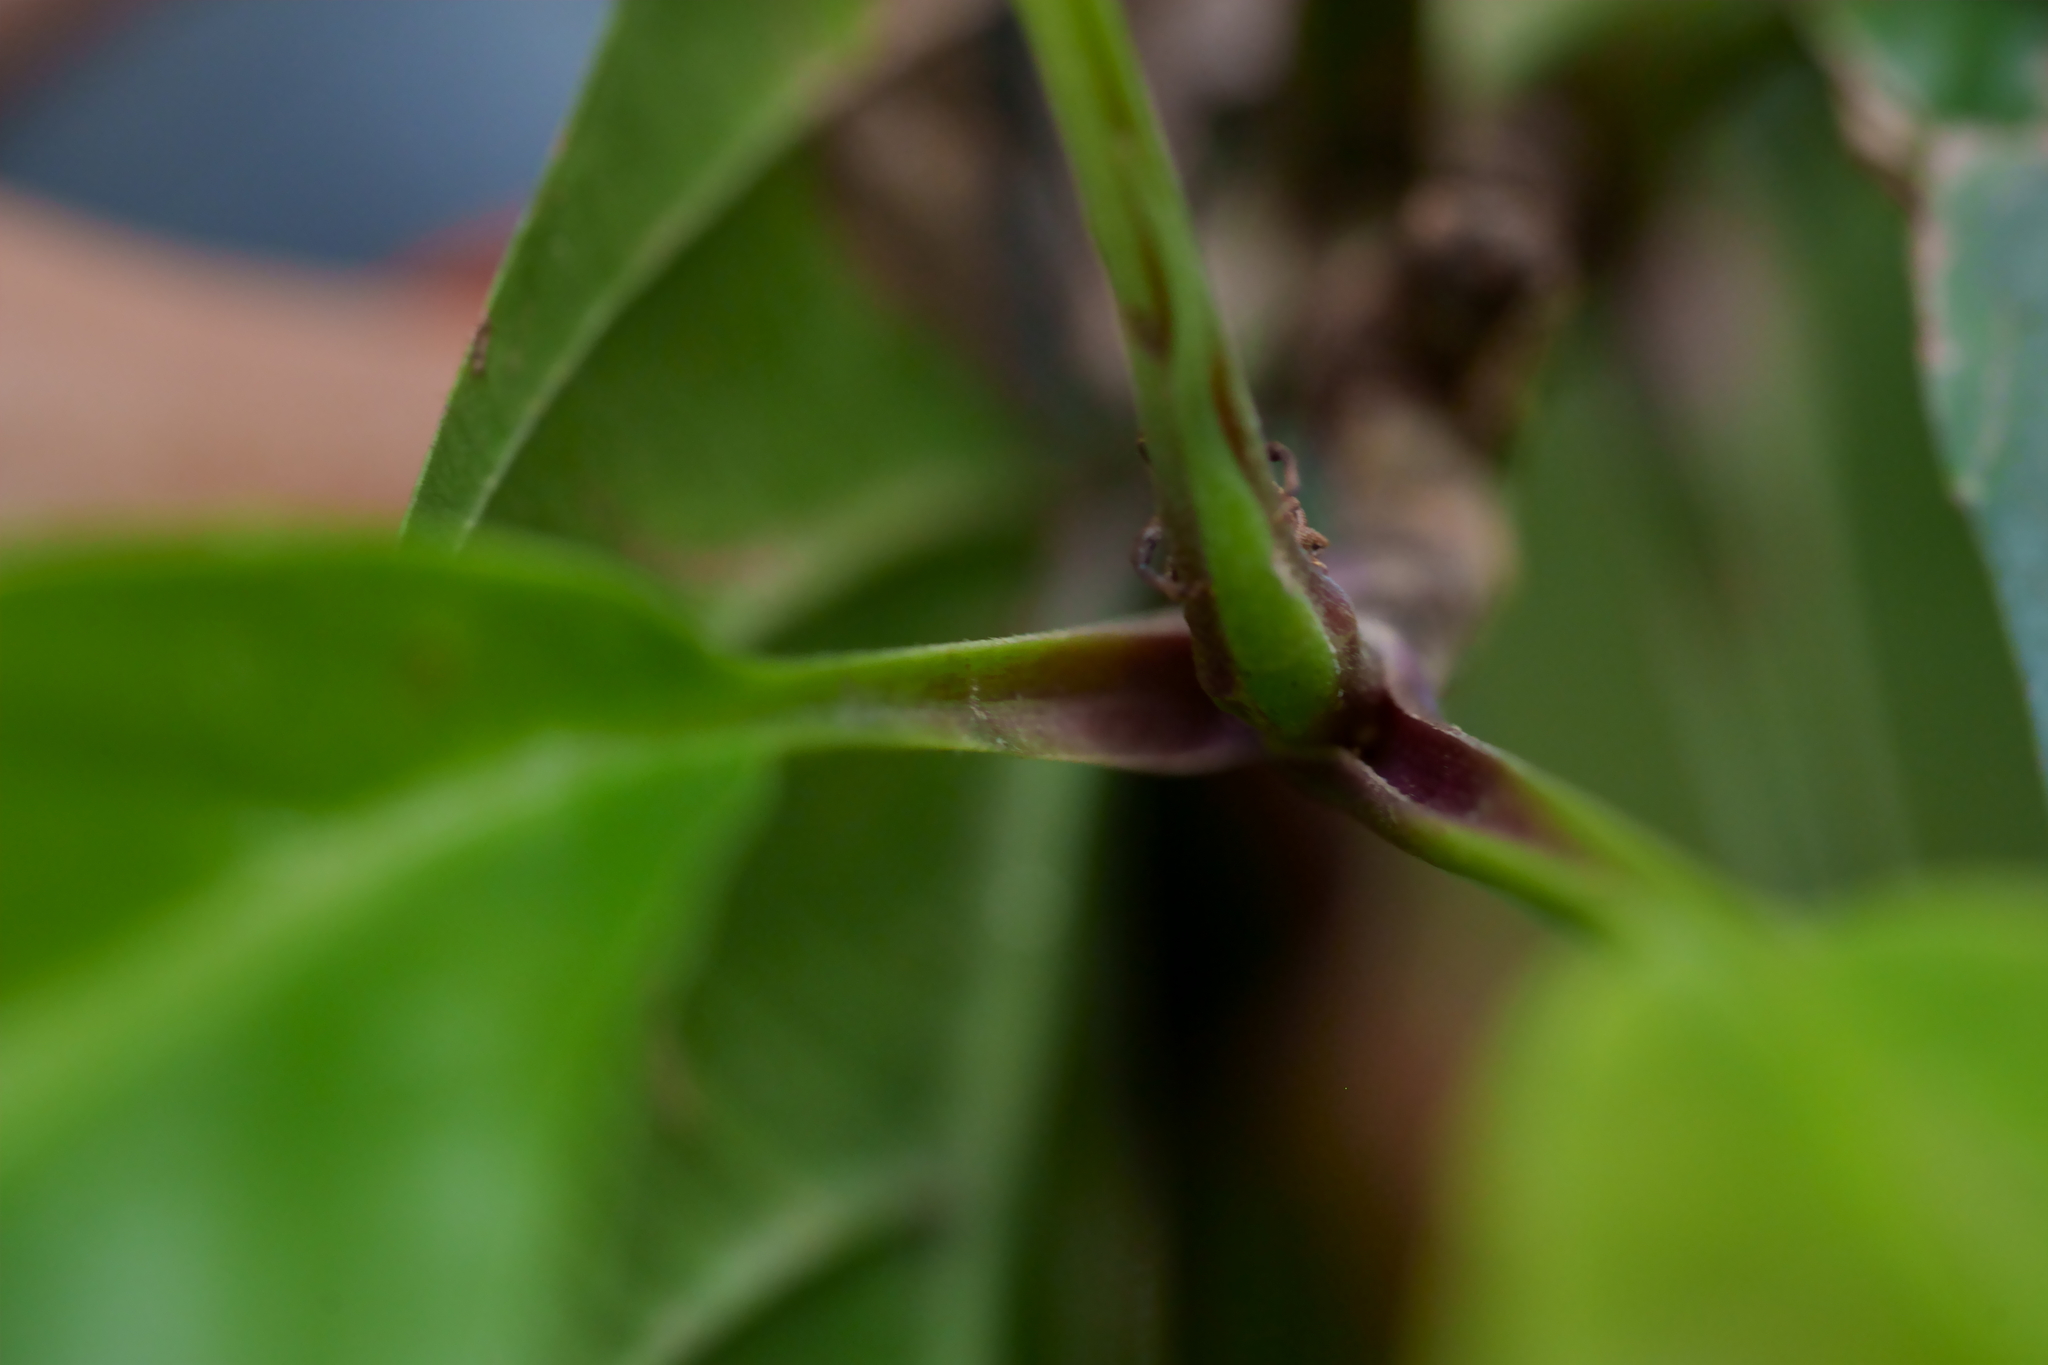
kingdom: Plantae
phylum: Tracheophyta
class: Magnoliopsida
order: Dilleniales
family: Dilleniaceae
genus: Dillenia
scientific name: Dillenia excelsa
